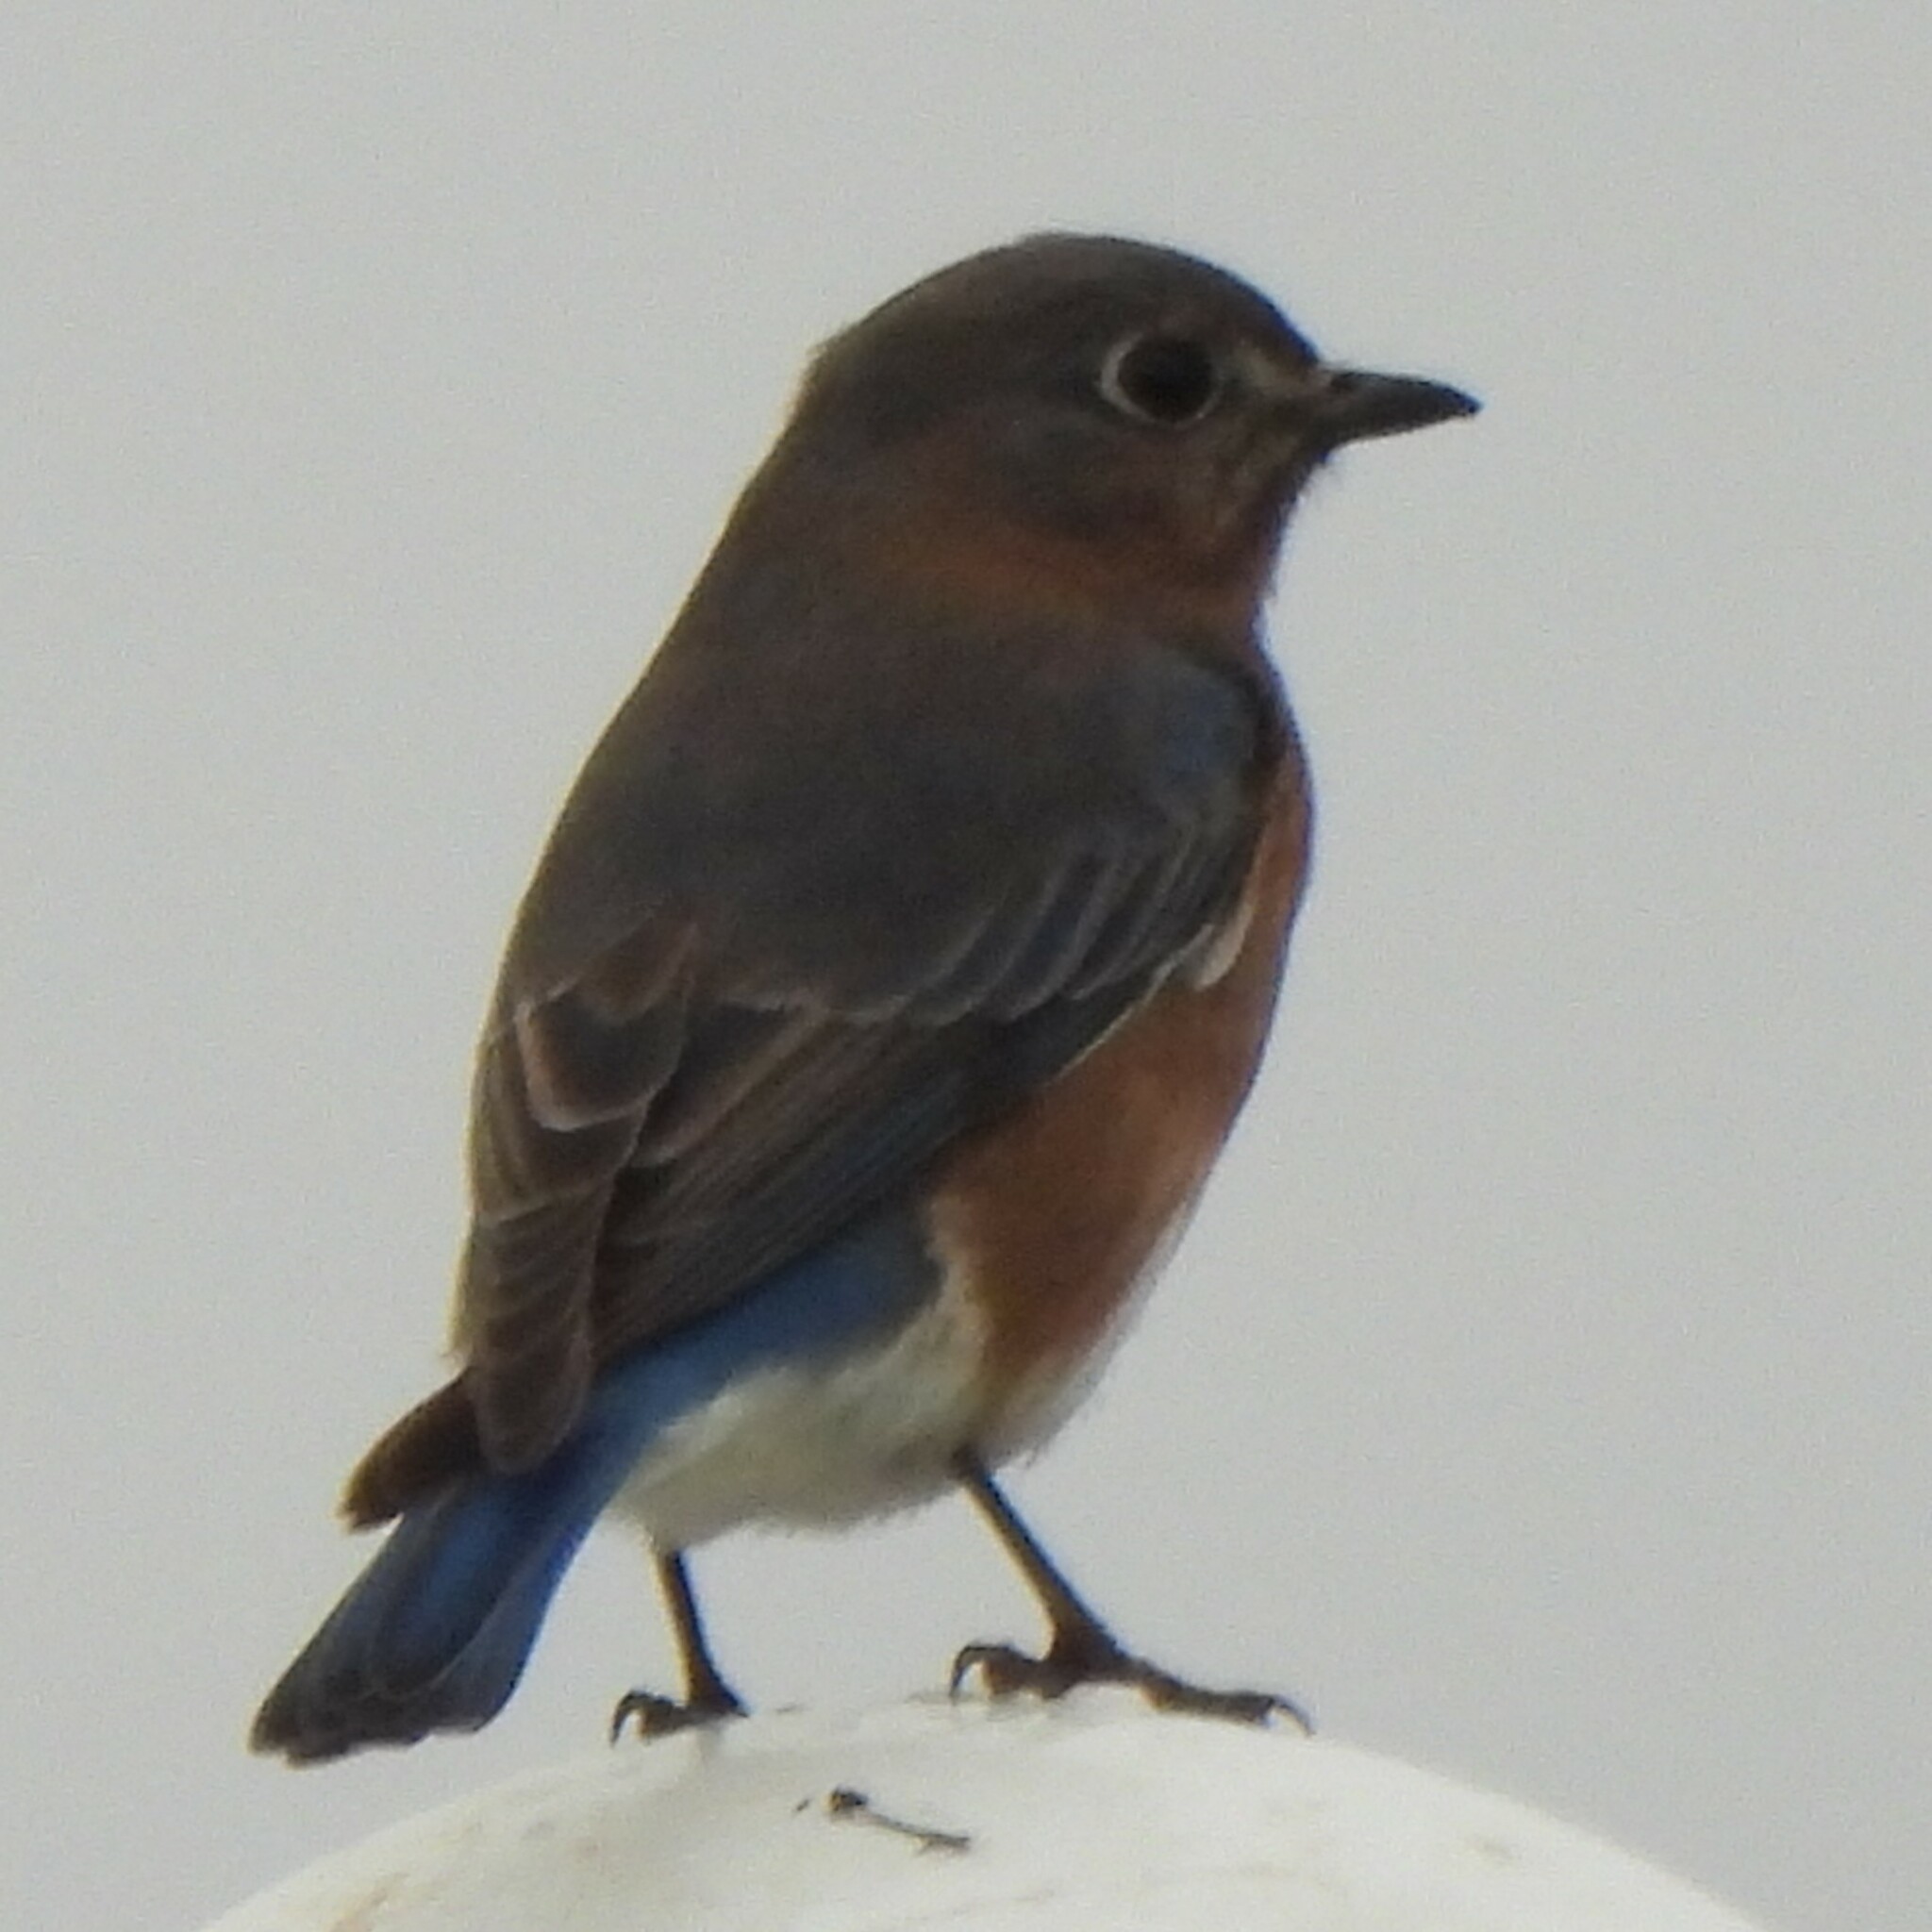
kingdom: Animalia
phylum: Chordata
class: Aves
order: Passeriformes
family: Turdidae
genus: Sialia
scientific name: Sialia sialis
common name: Eastern bluebird
